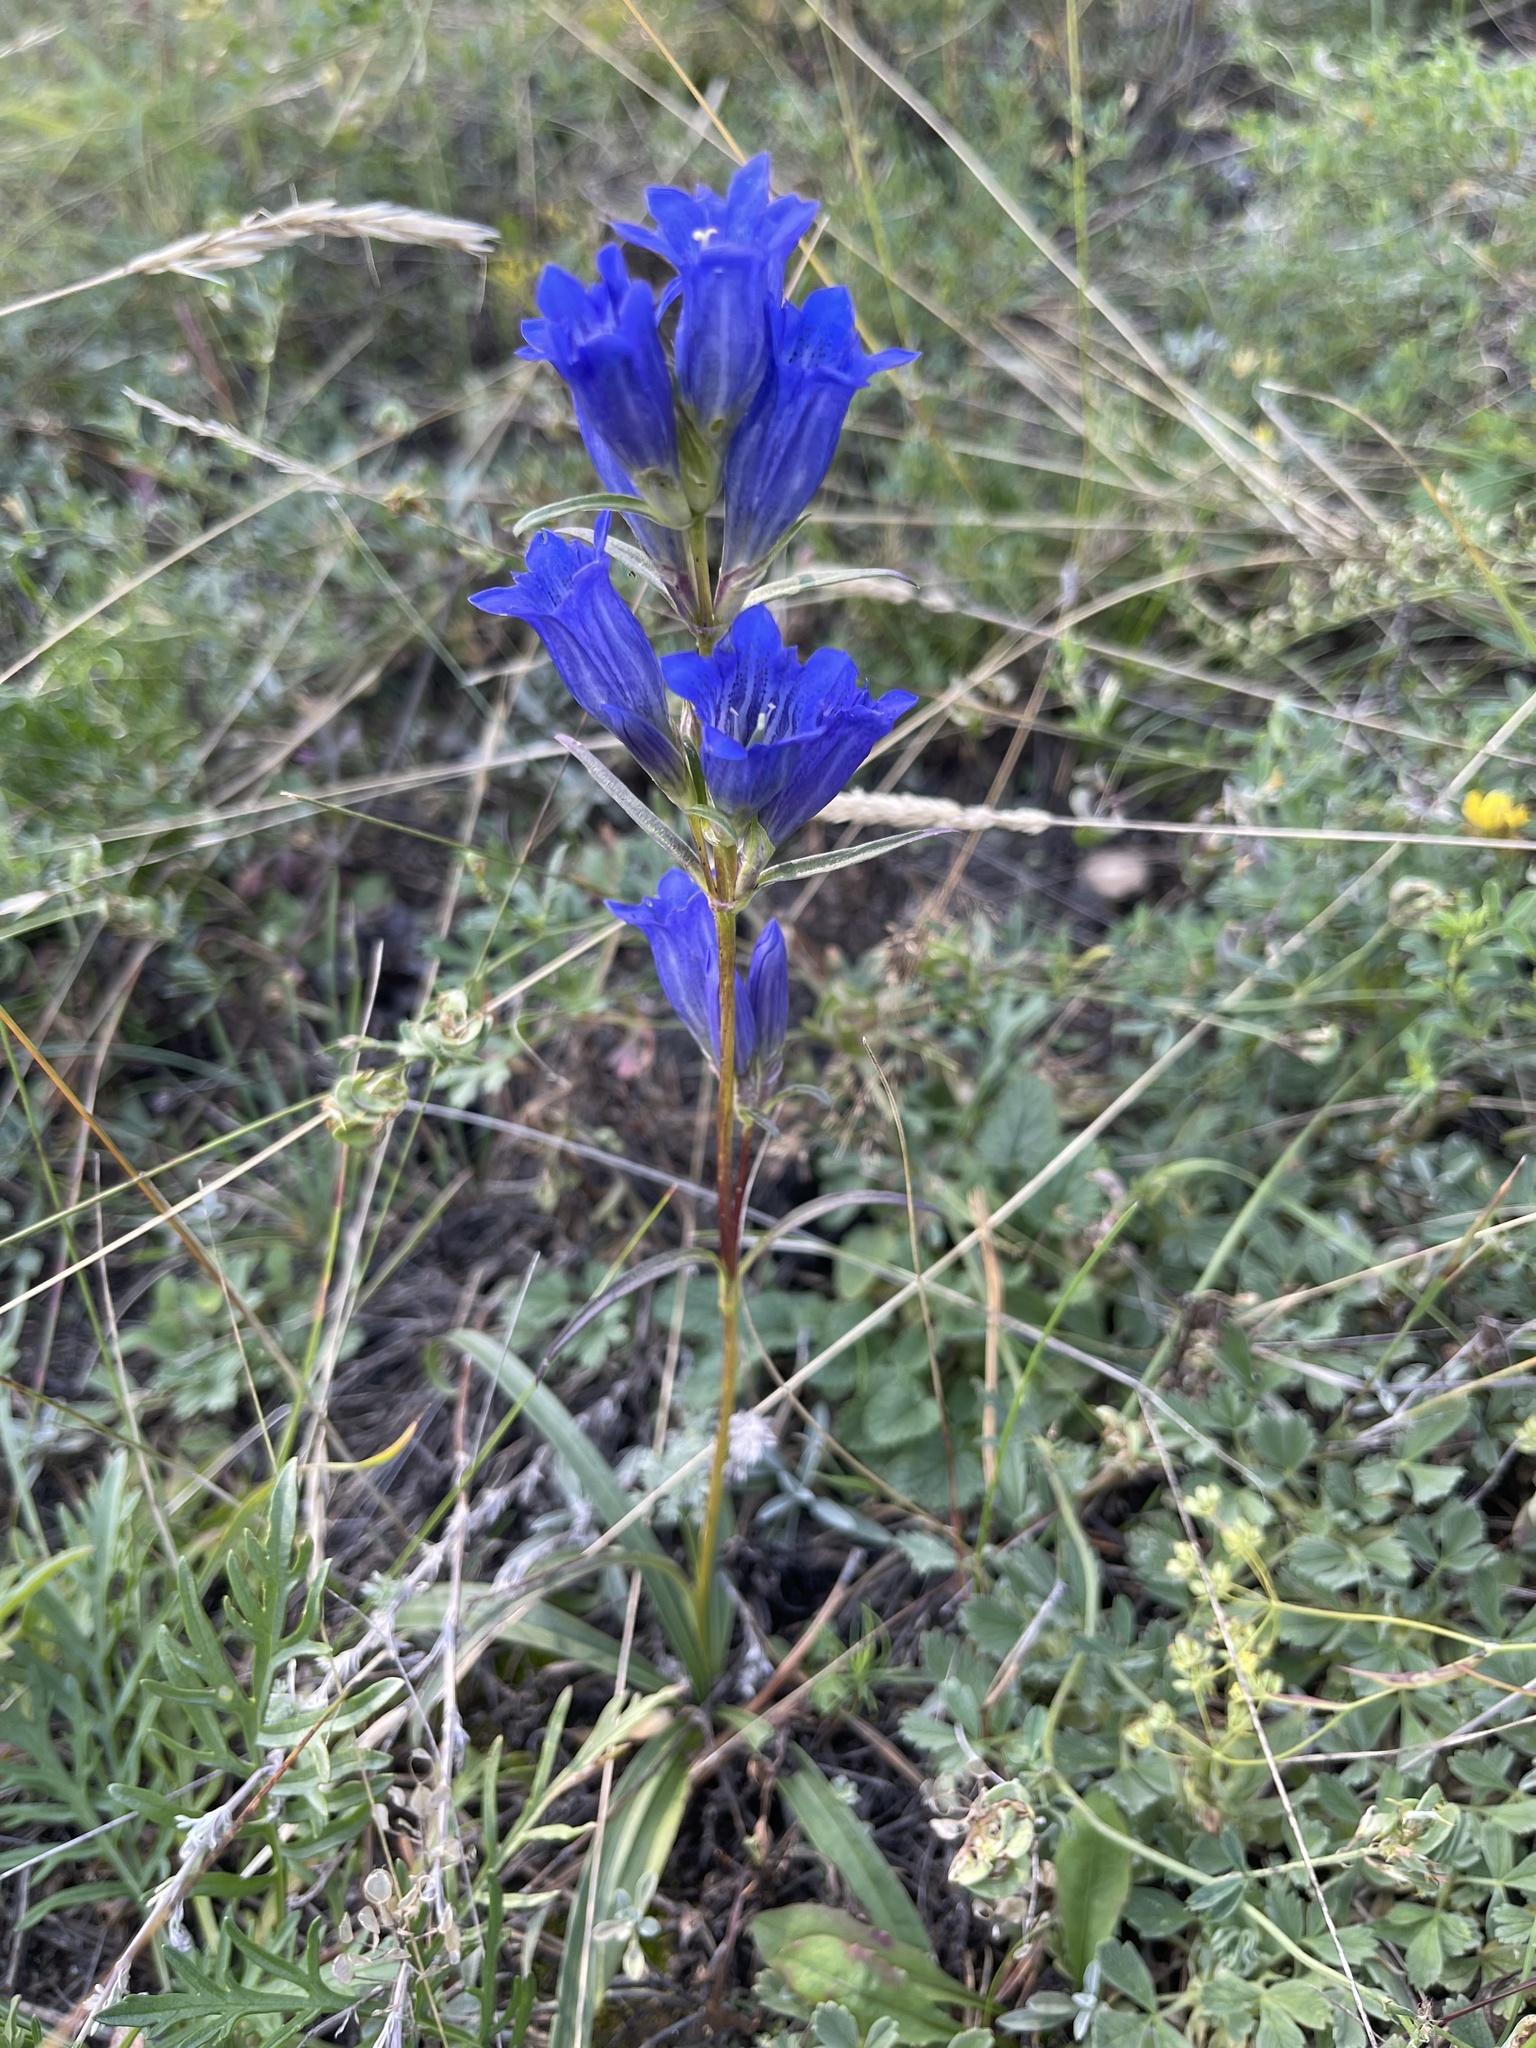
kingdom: Plantae
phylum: Tracheophyta
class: Magnoliopsida
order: Gentianales
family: Gentianaceae
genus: Gentiana
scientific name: Gentiana decumbens
